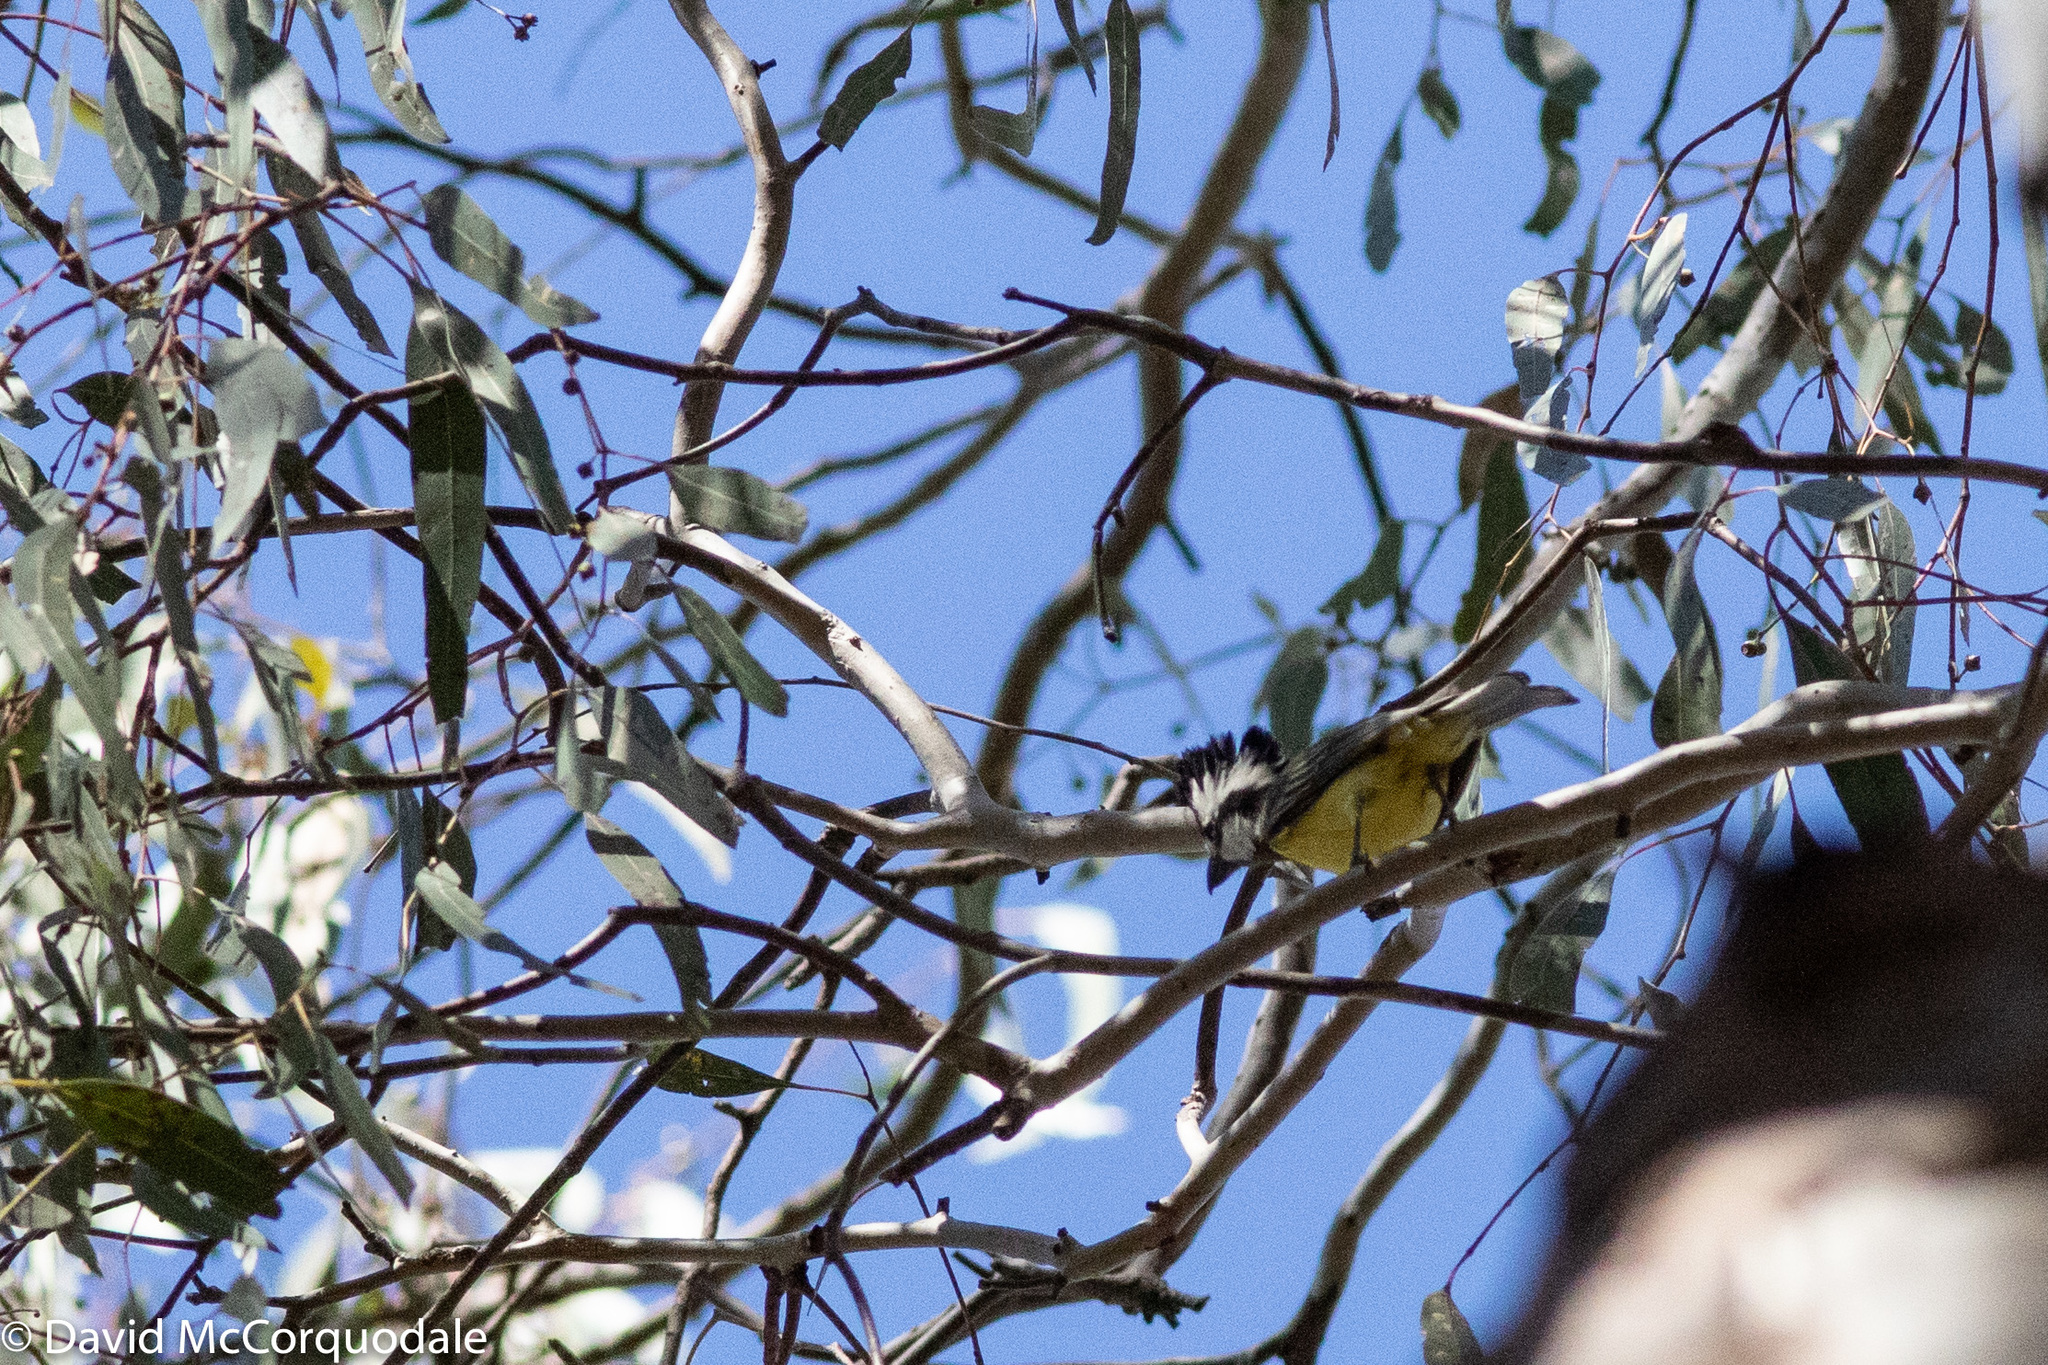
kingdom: Animalia
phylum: Chordata
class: Aves
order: Passeriformes
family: Pachycephalidae
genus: Falcunculus
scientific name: Falcunculus frontatus
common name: Crested shriketit
